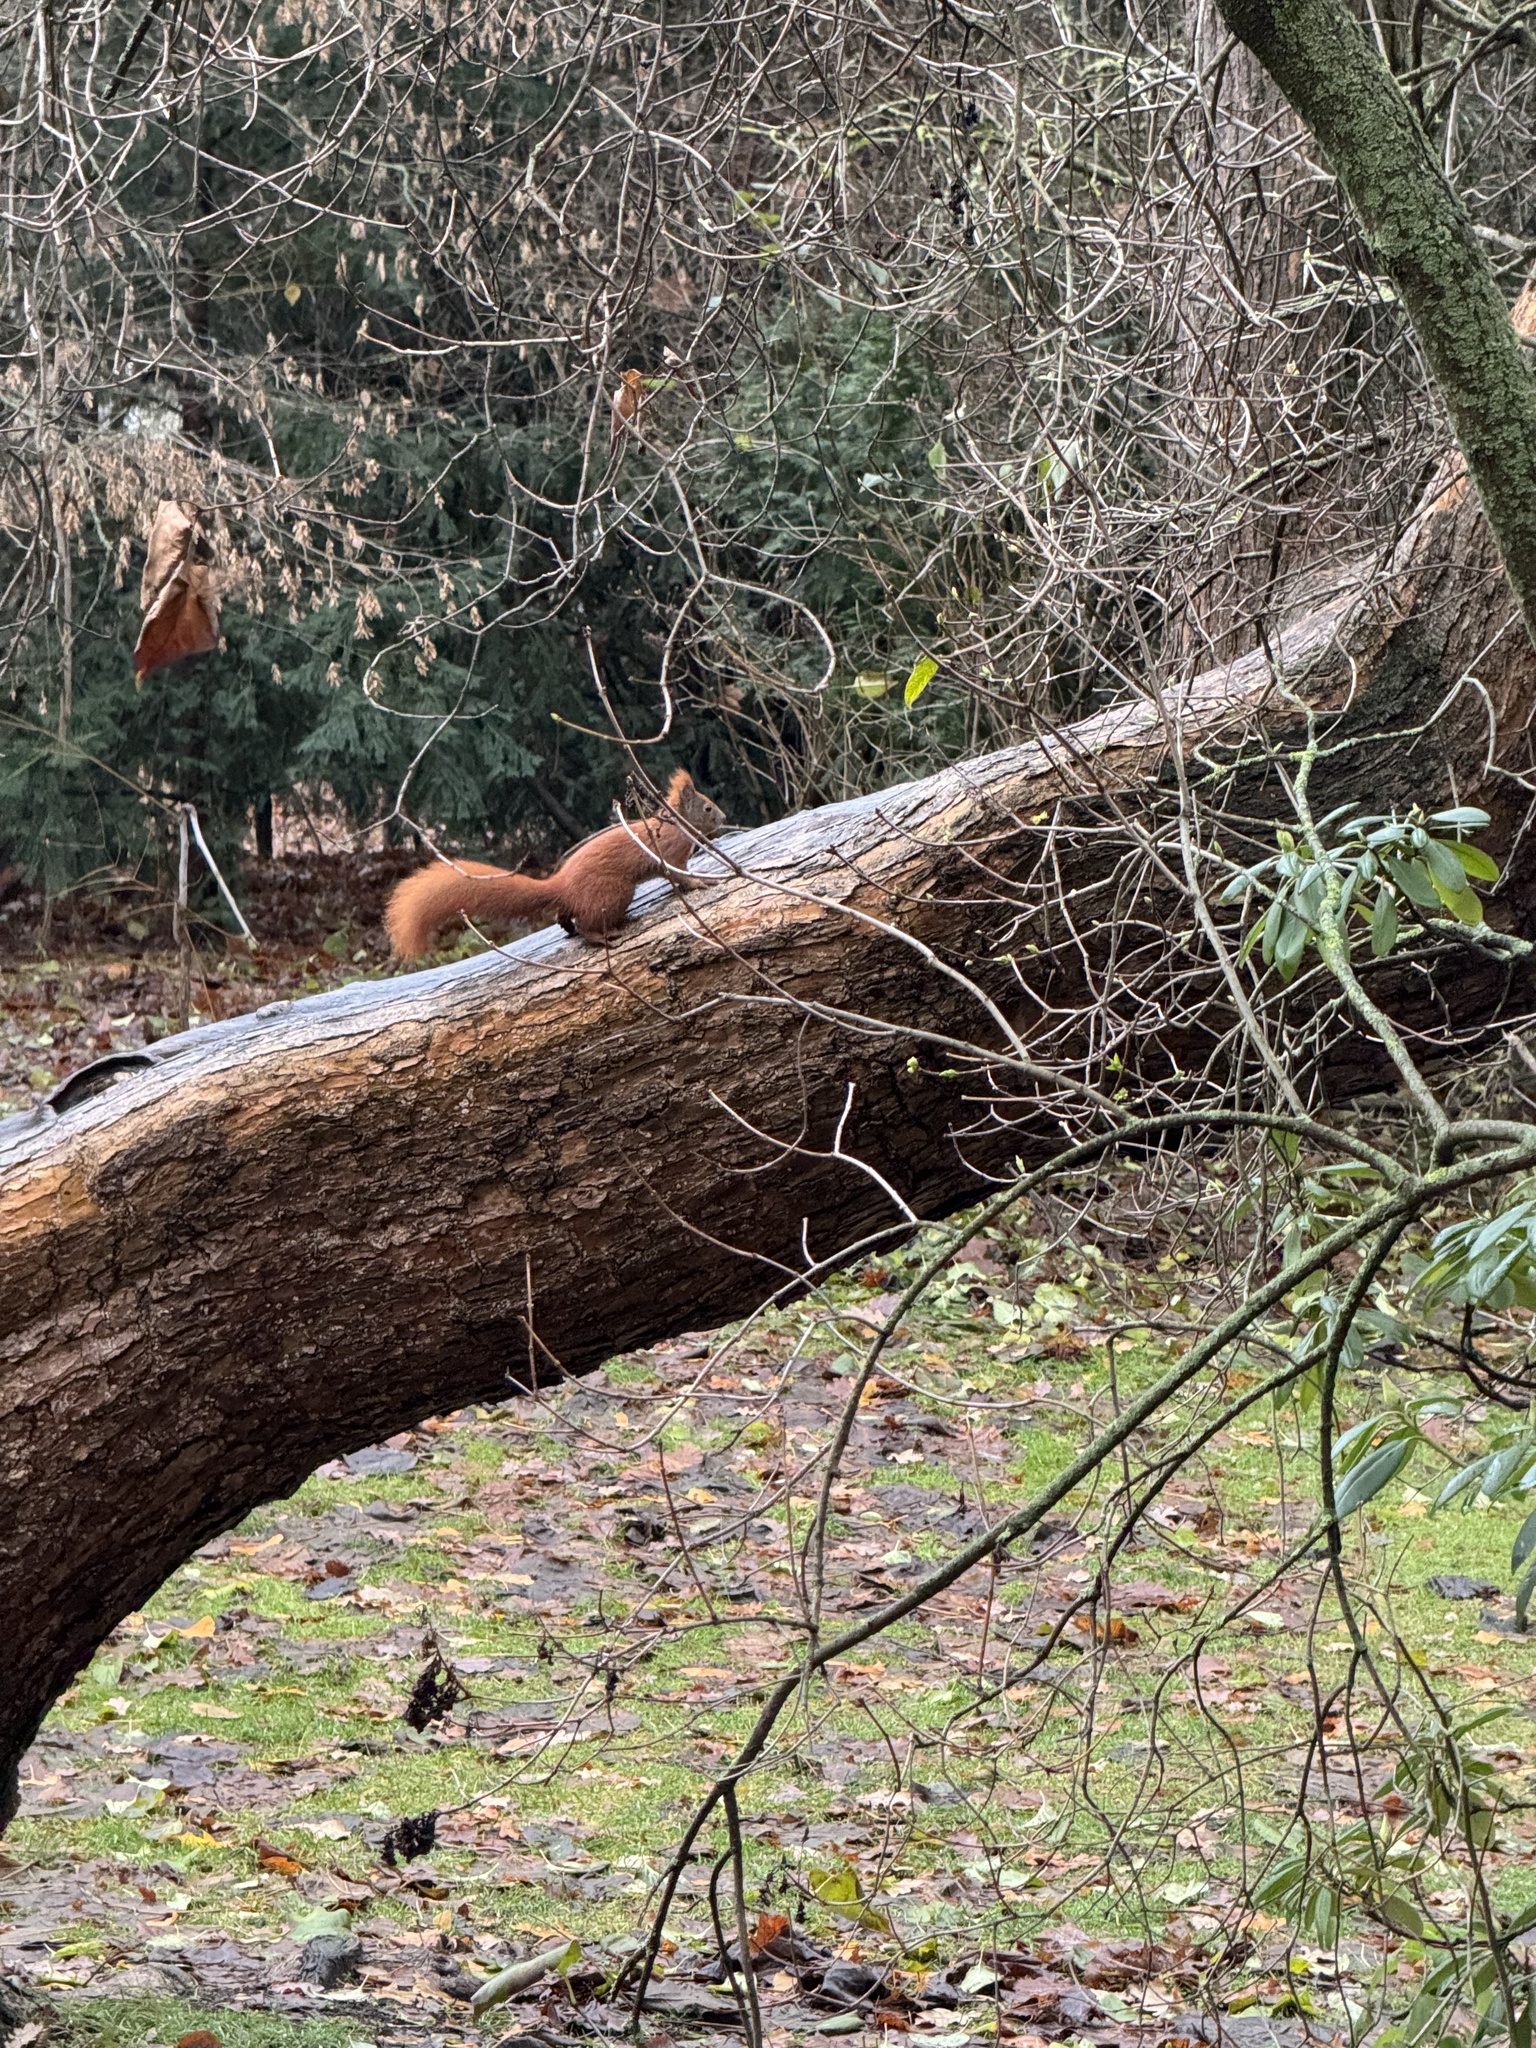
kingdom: Animalia
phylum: Chordata
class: Mammalia
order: Rodentia
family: Sciuridae
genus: Sciurus
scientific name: Sciurus vulgaris
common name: Eurasian red squirrel
